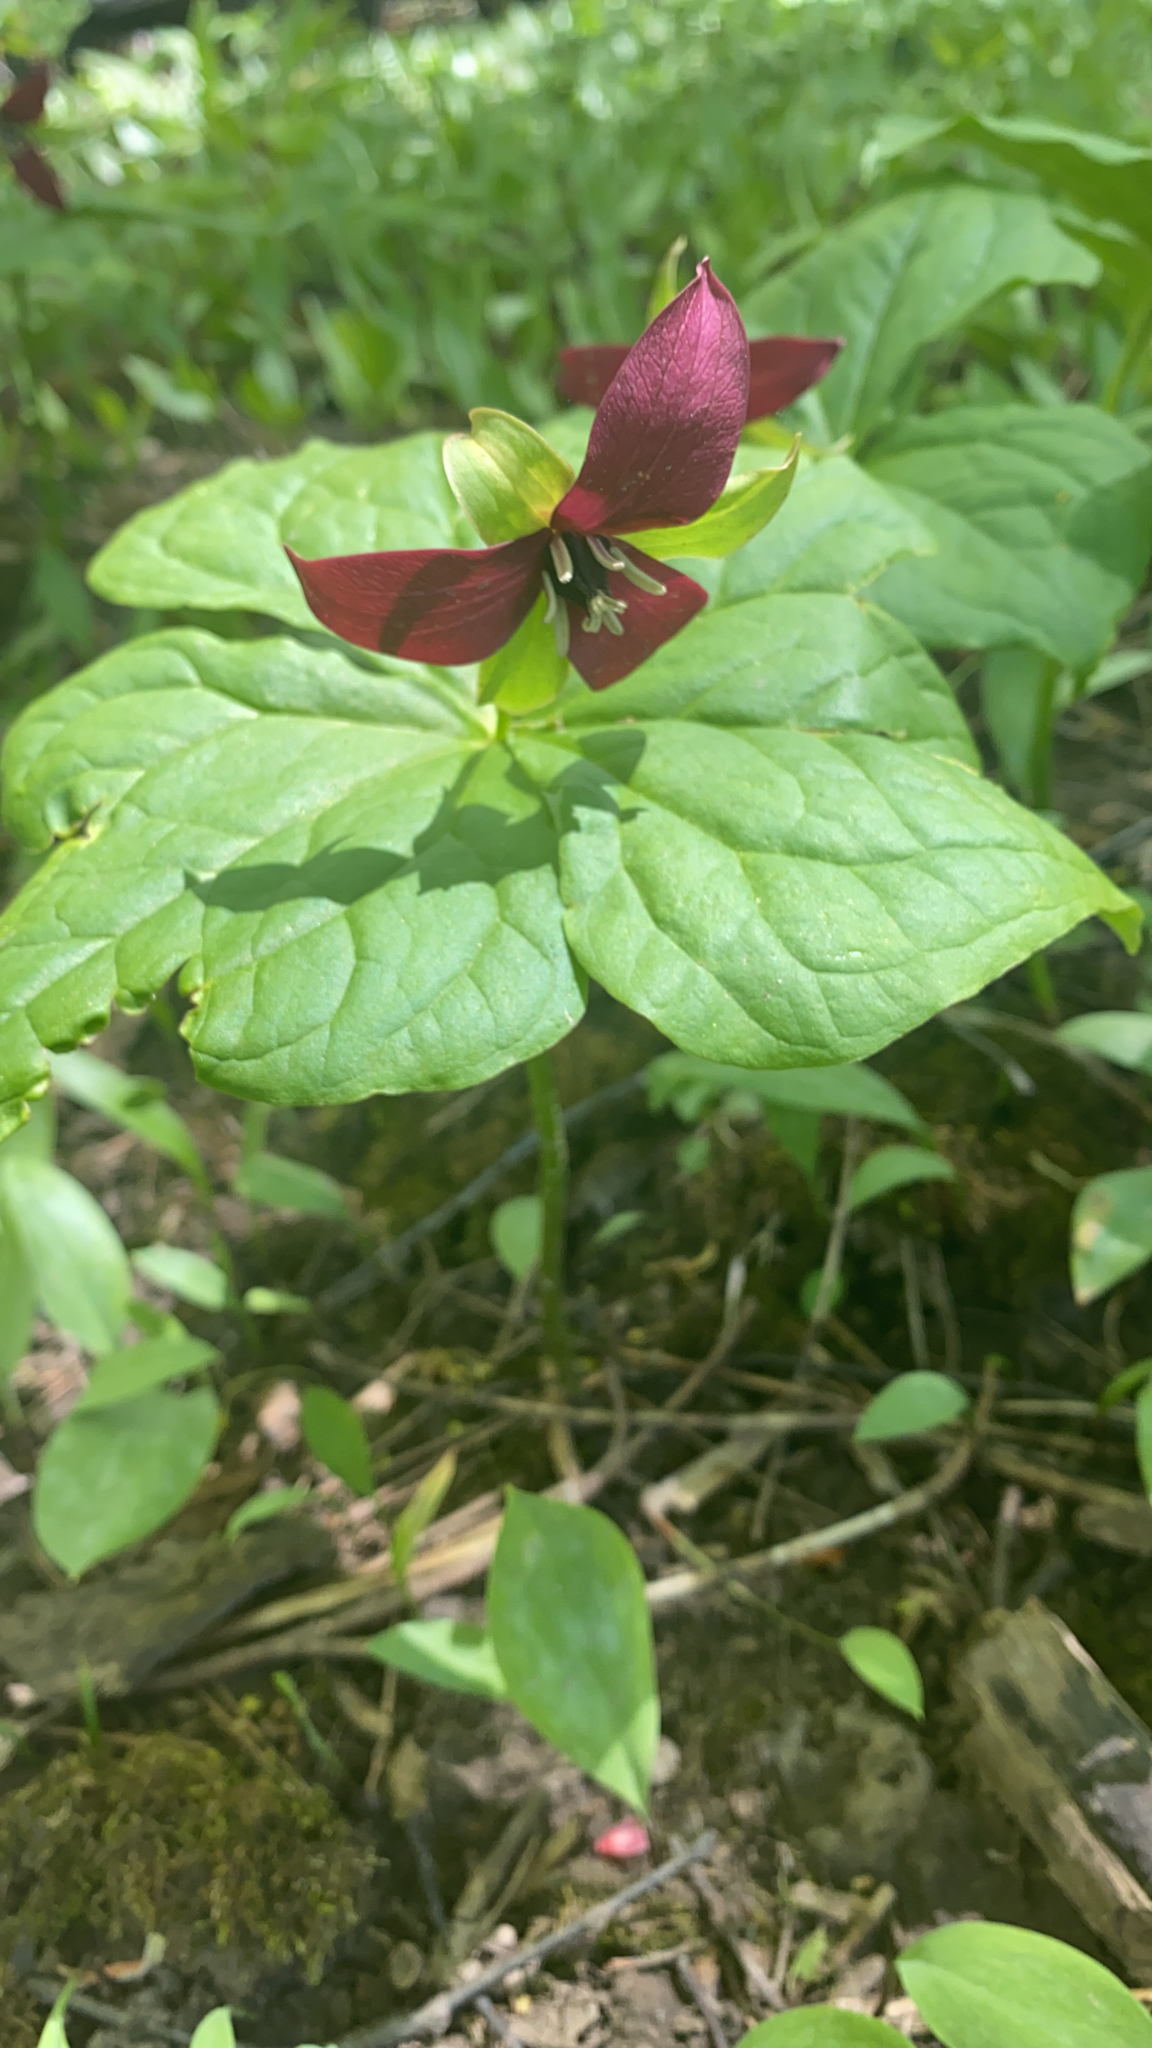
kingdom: Plantae
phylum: Tracheophyta
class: Liliopsida
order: Liliales
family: Melanthiaceae
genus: Trillium
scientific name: Trillium erectum
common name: Purple trillium
